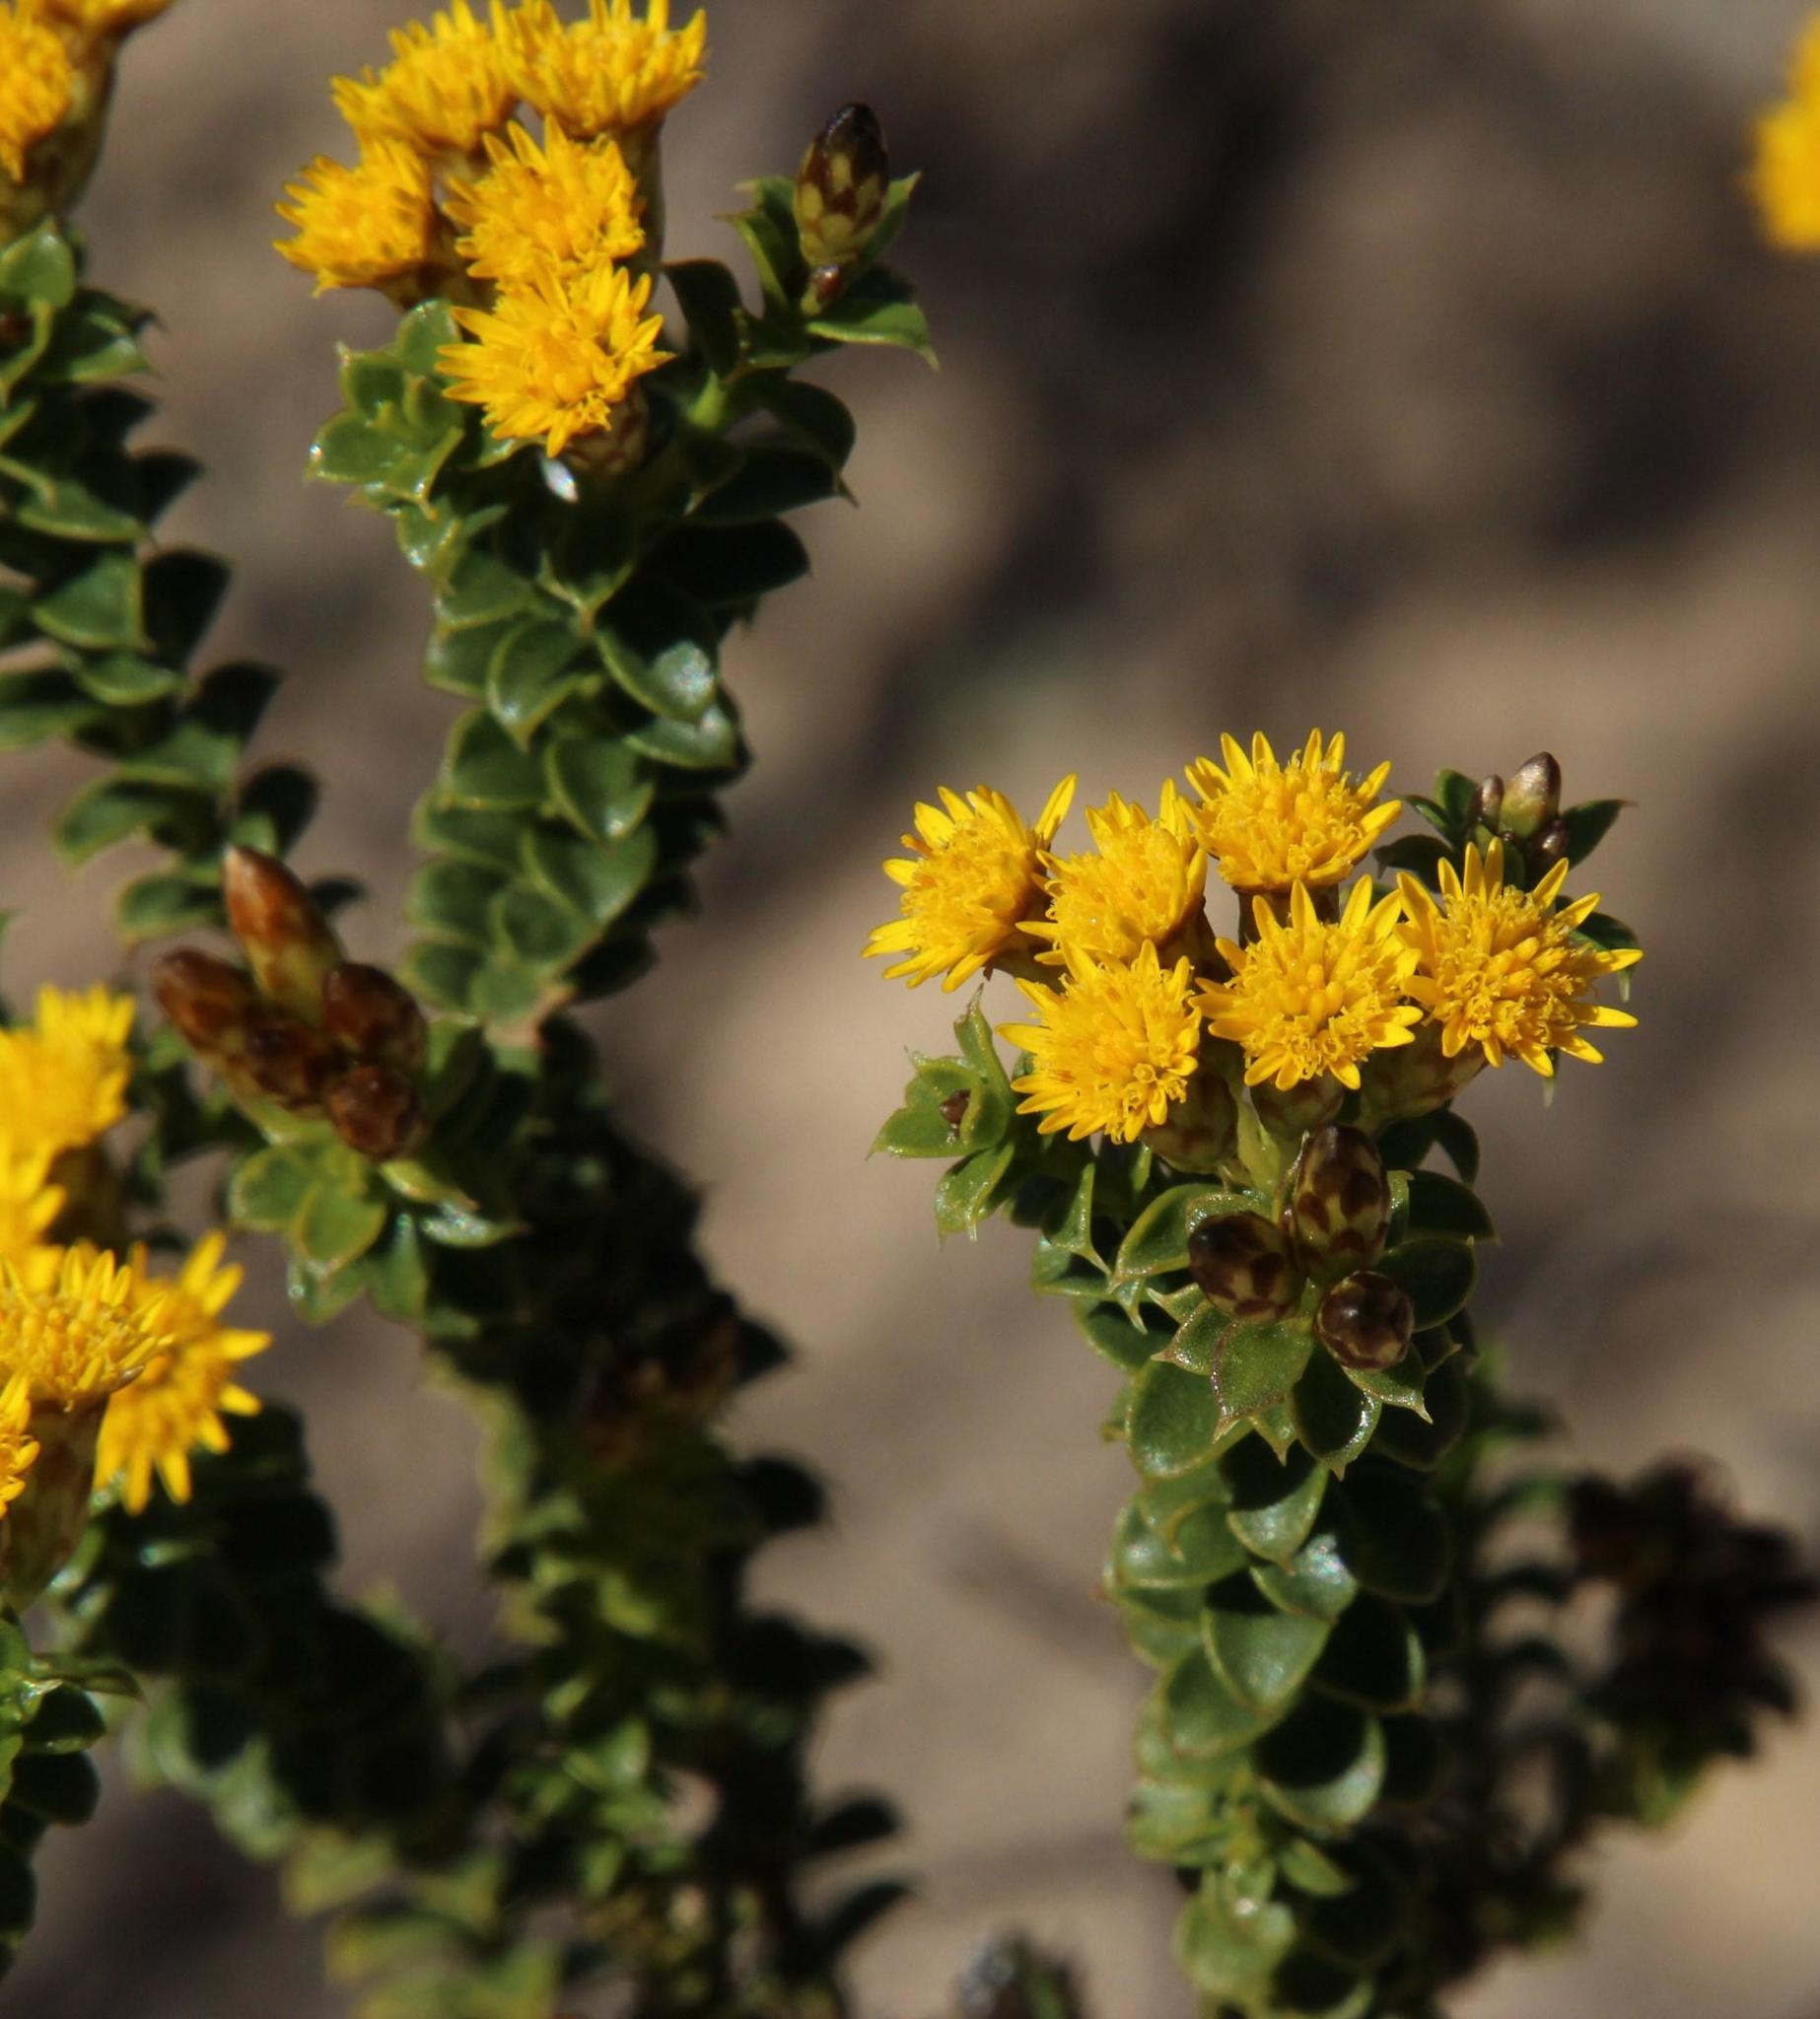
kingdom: Plantae
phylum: Tracheophyta
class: Magnoliopsida
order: Asterales
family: Asteraceae
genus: Oedera
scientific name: Oedera squarrosa
